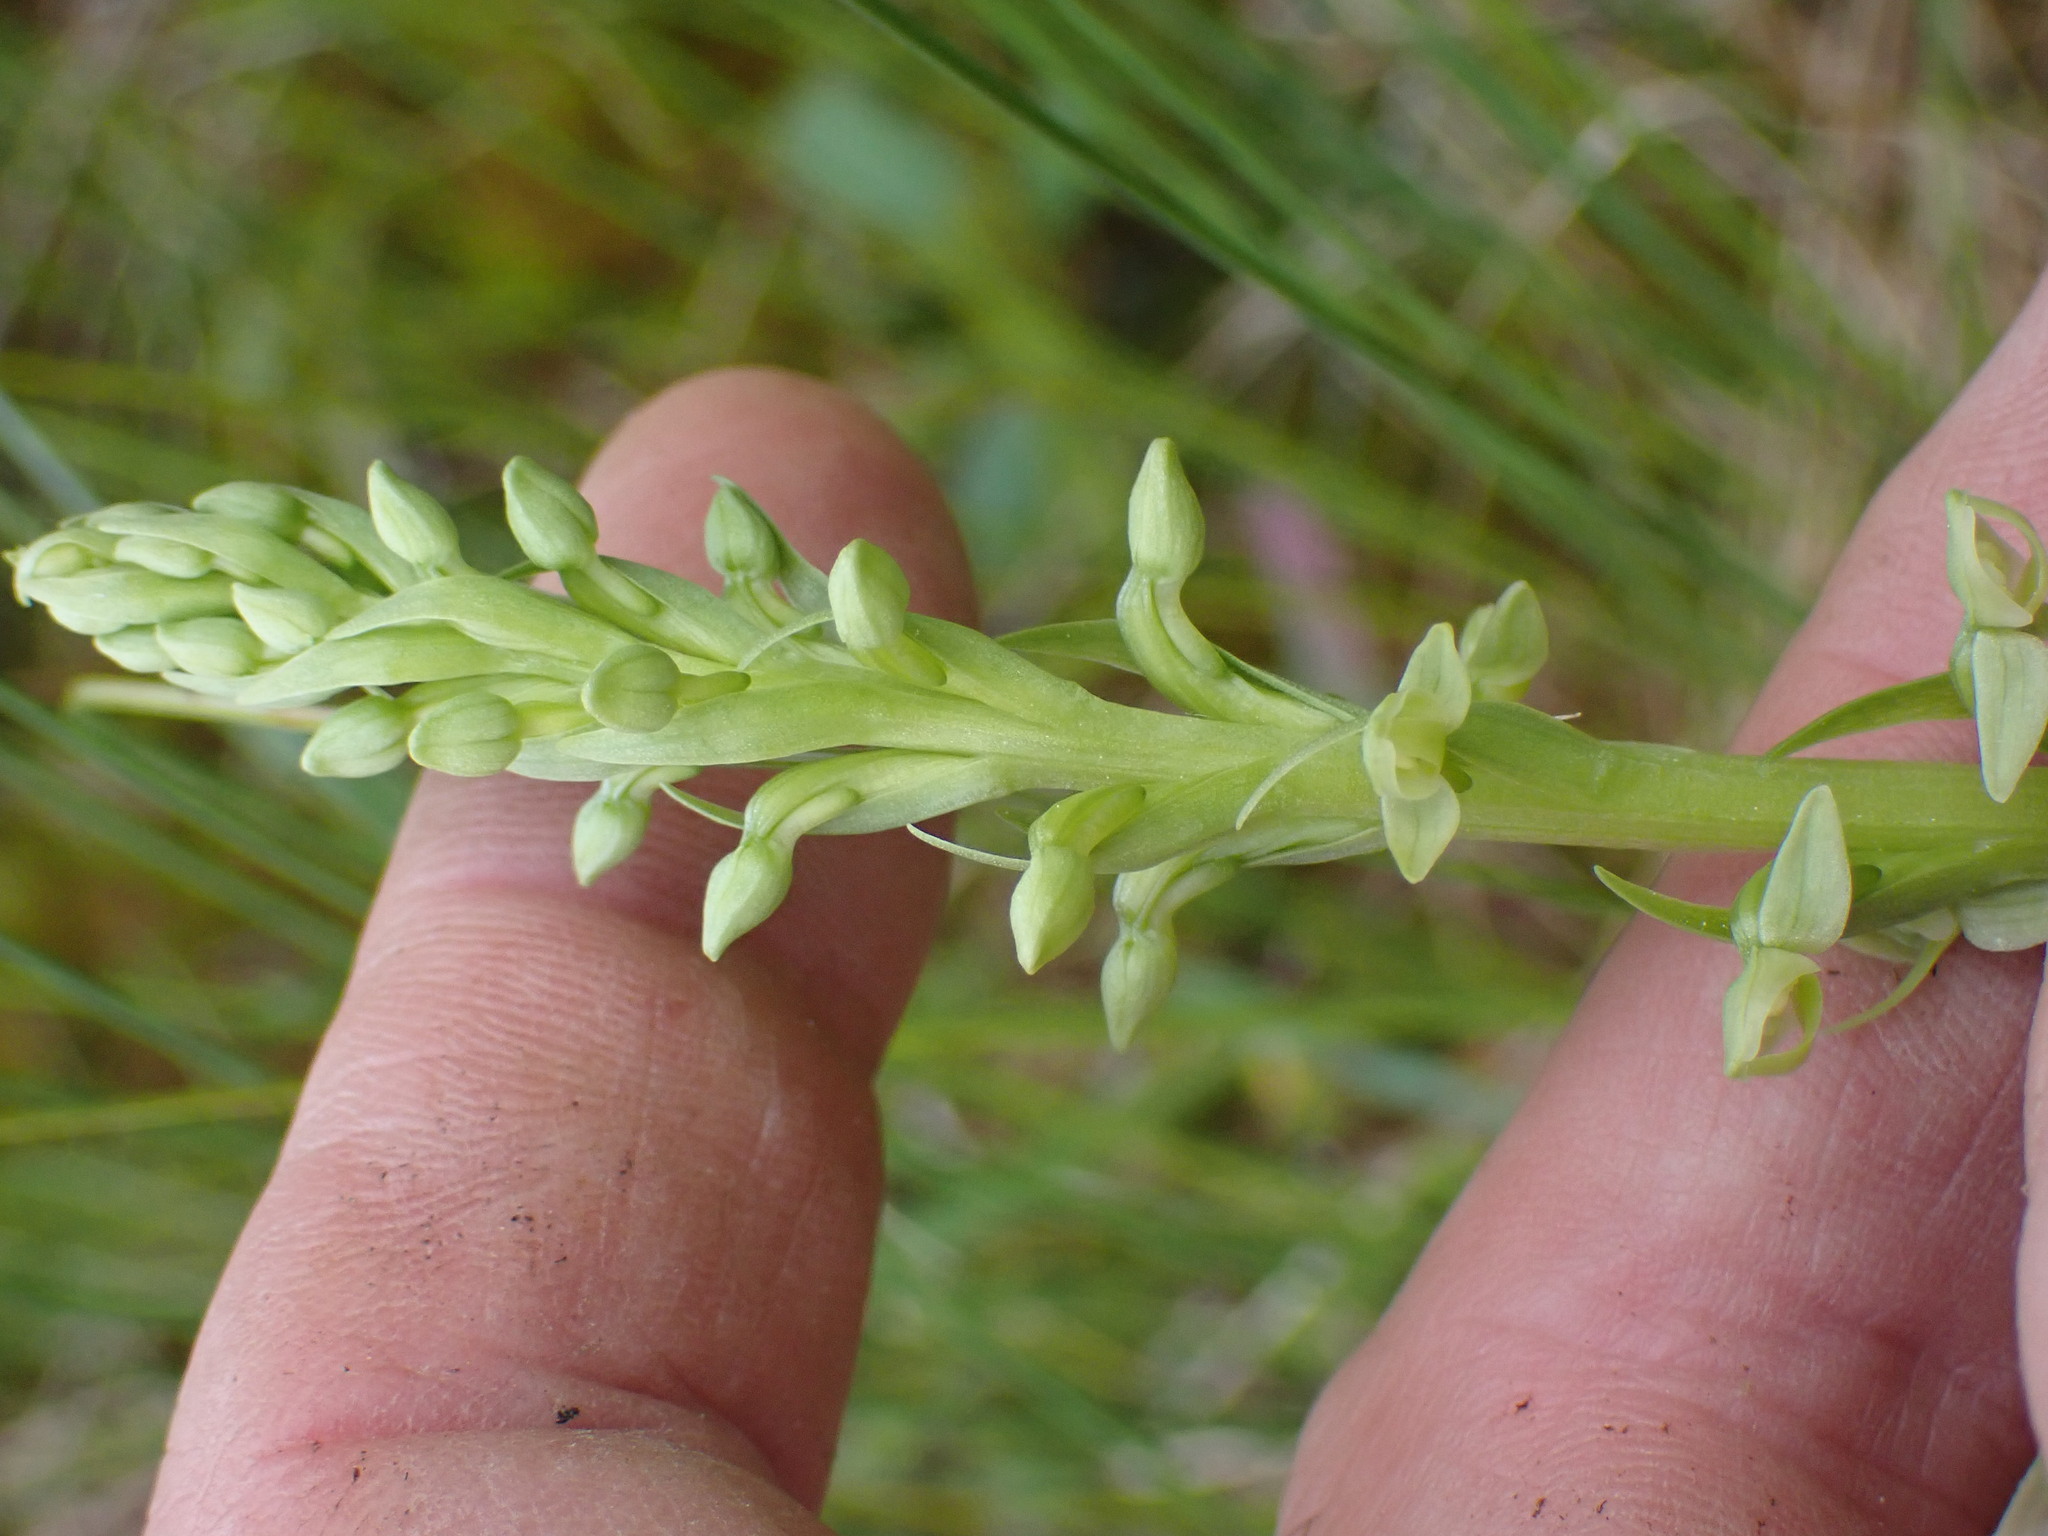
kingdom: Plantae
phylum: Tracheophyta
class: Liliopsida
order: Asparagales
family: Orchidaceae
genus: Platanthera
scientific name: Platanthera huronensis
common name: Fragrant green orchid
